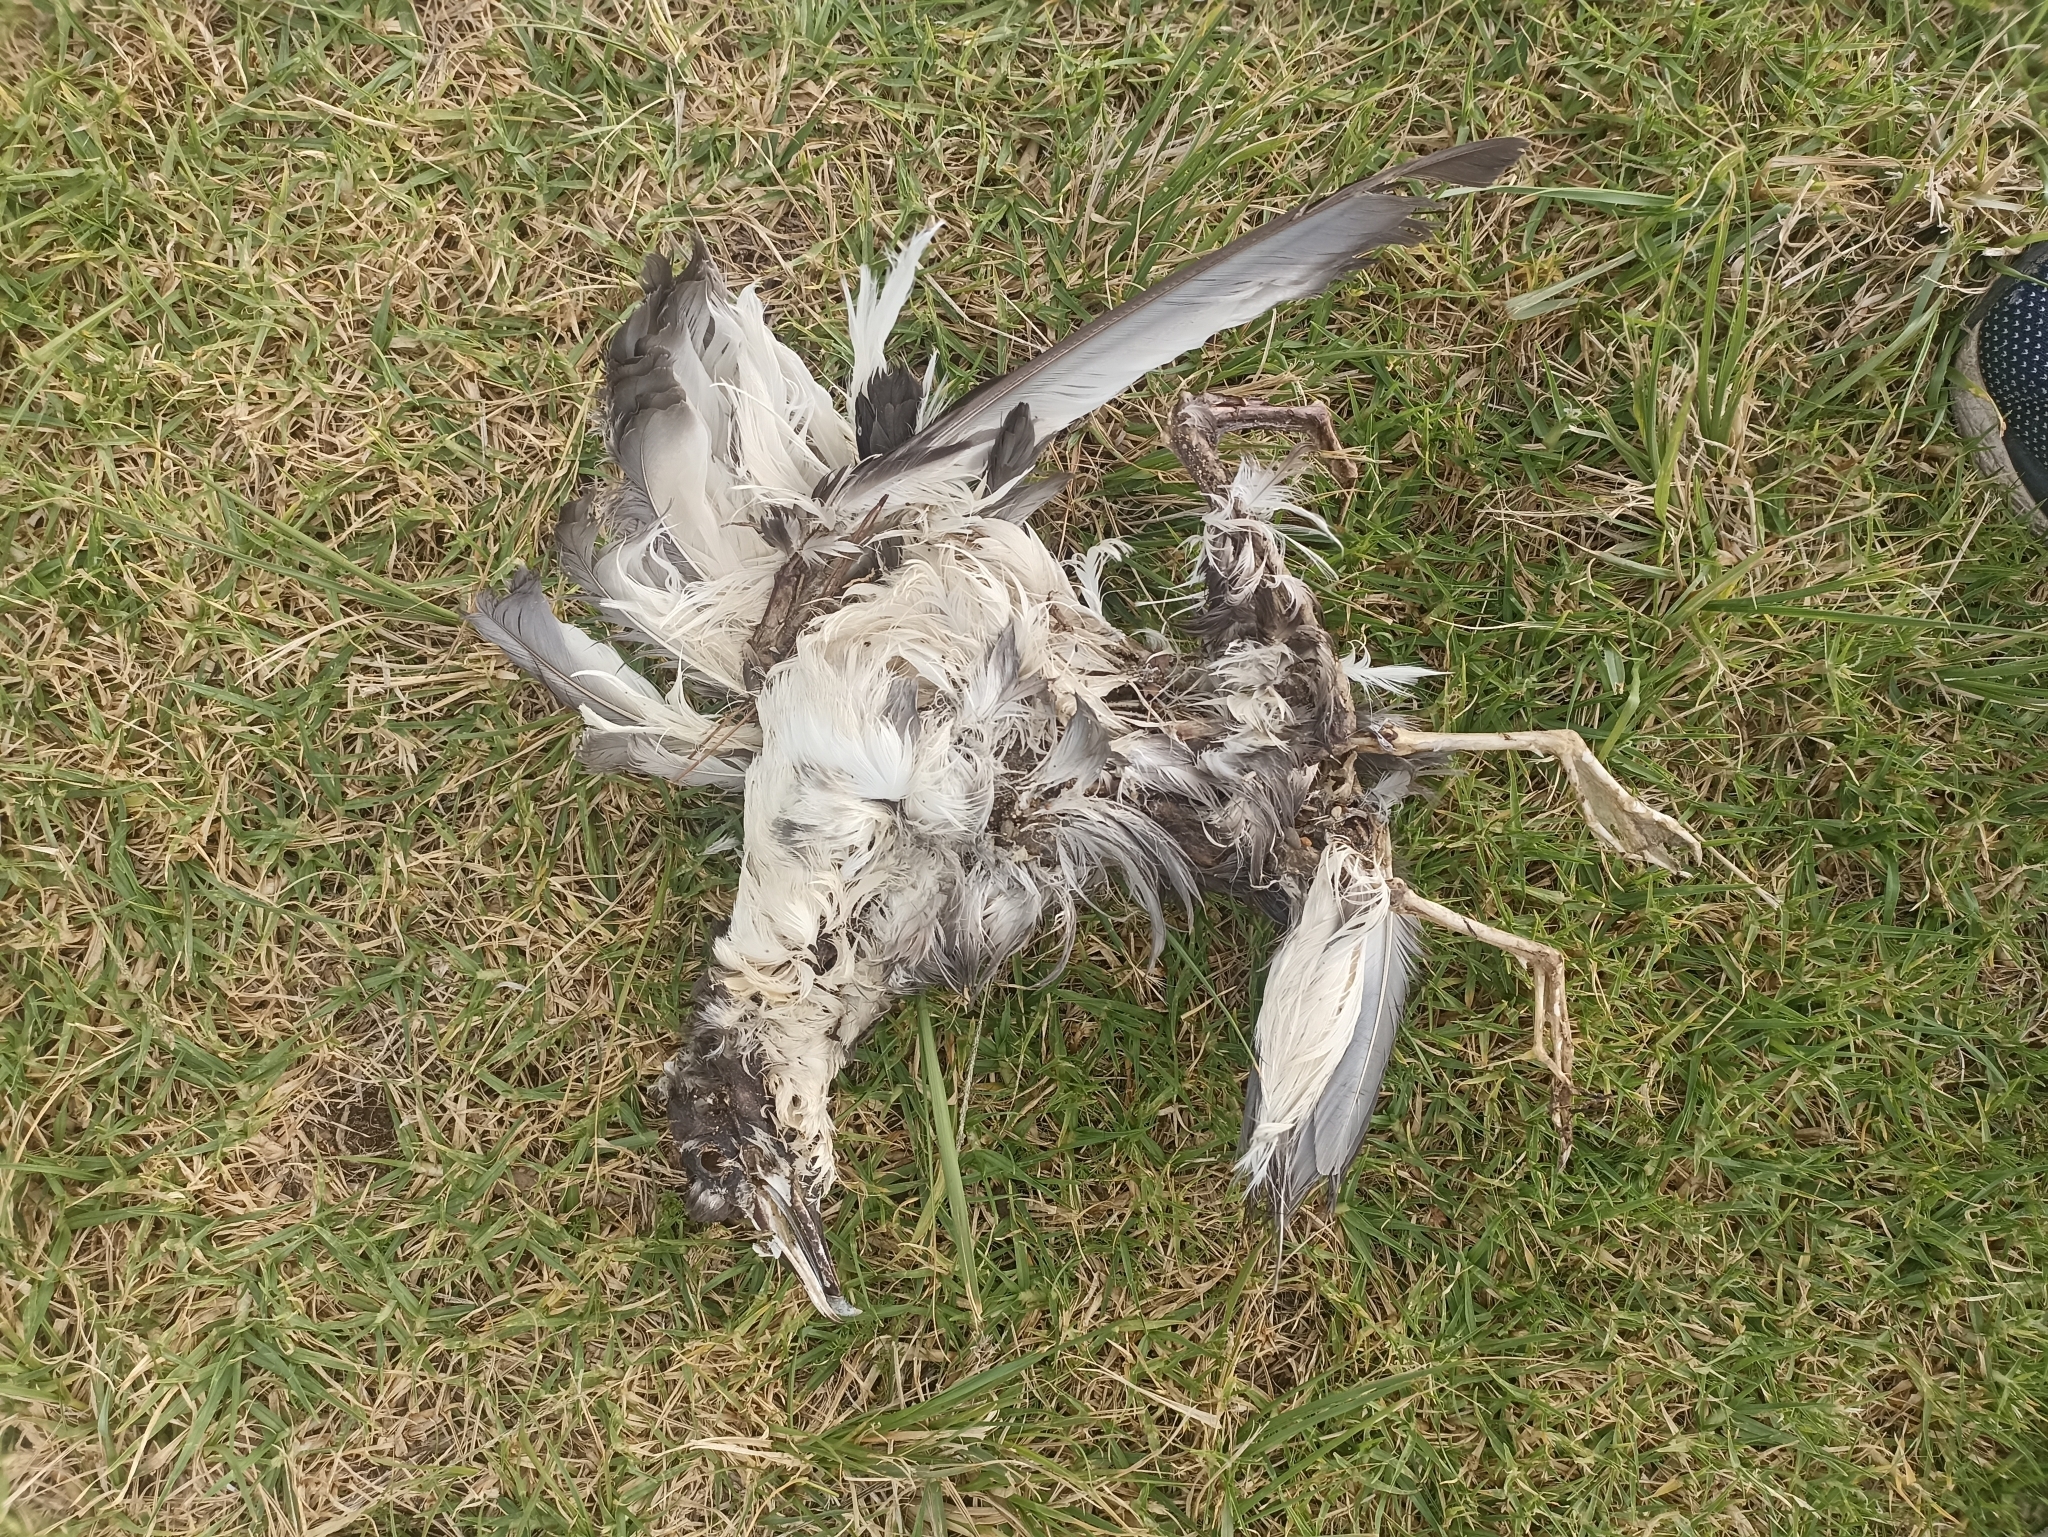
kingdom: Animalia
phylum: Chordata
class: Aves
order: Procellariiformes
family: Procellariidae
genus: Puffinus
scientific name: Puffinus bulleri
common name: Buller's shearwater
